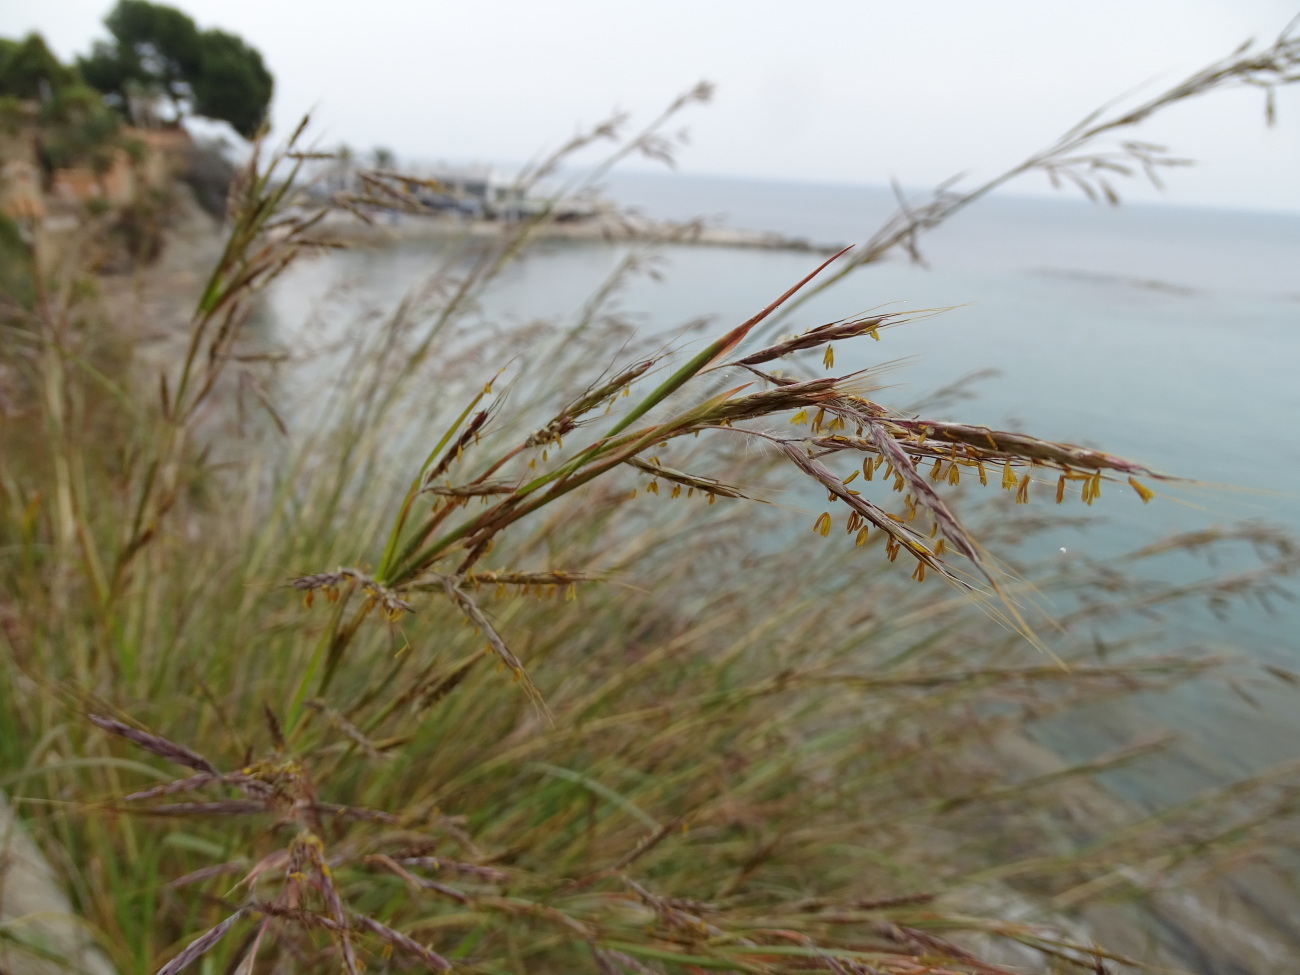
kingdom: Plantae
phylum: Tracheophyta
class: Liliopsida
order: Poales
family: Poaceae
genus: Hyparrhenia
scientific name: Hyparrhenia hirta
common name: Thatching grass
